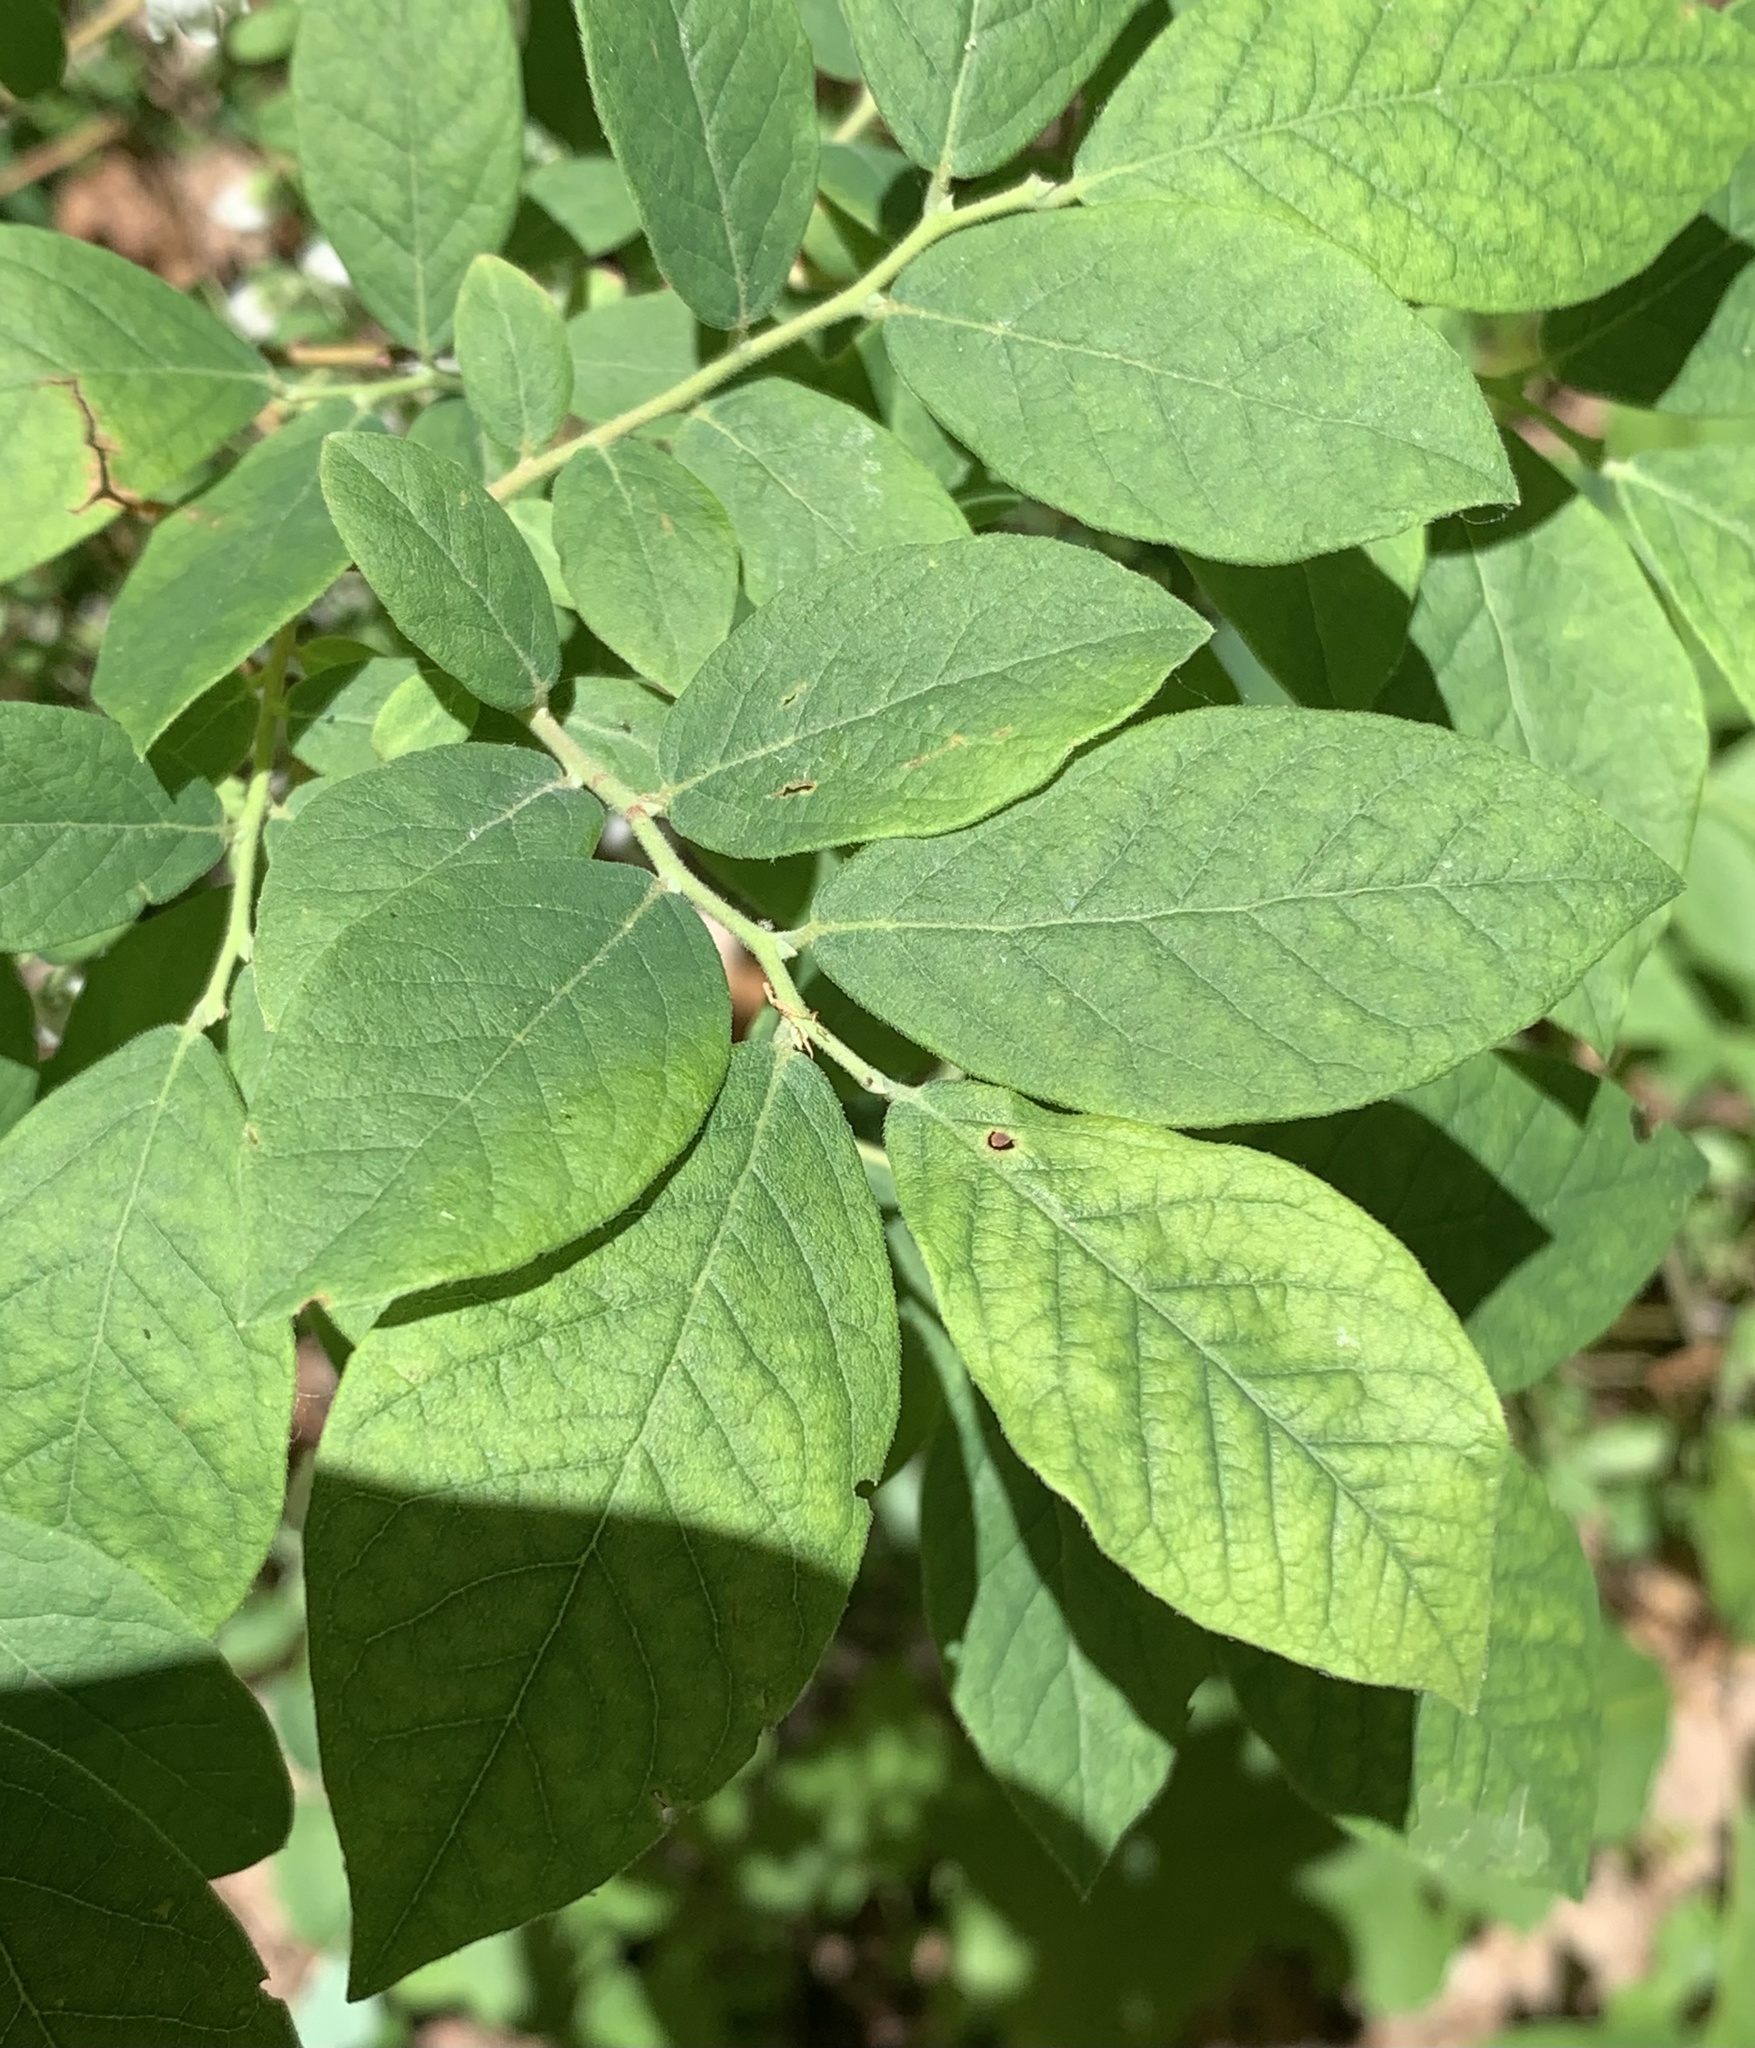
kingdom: Plantae
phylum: Tracheophyta
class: Magnoliopsida
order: Ericales
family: Ericaceae
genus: Vaccinium
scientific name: Vaccinium stamineum
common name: Deerberry
